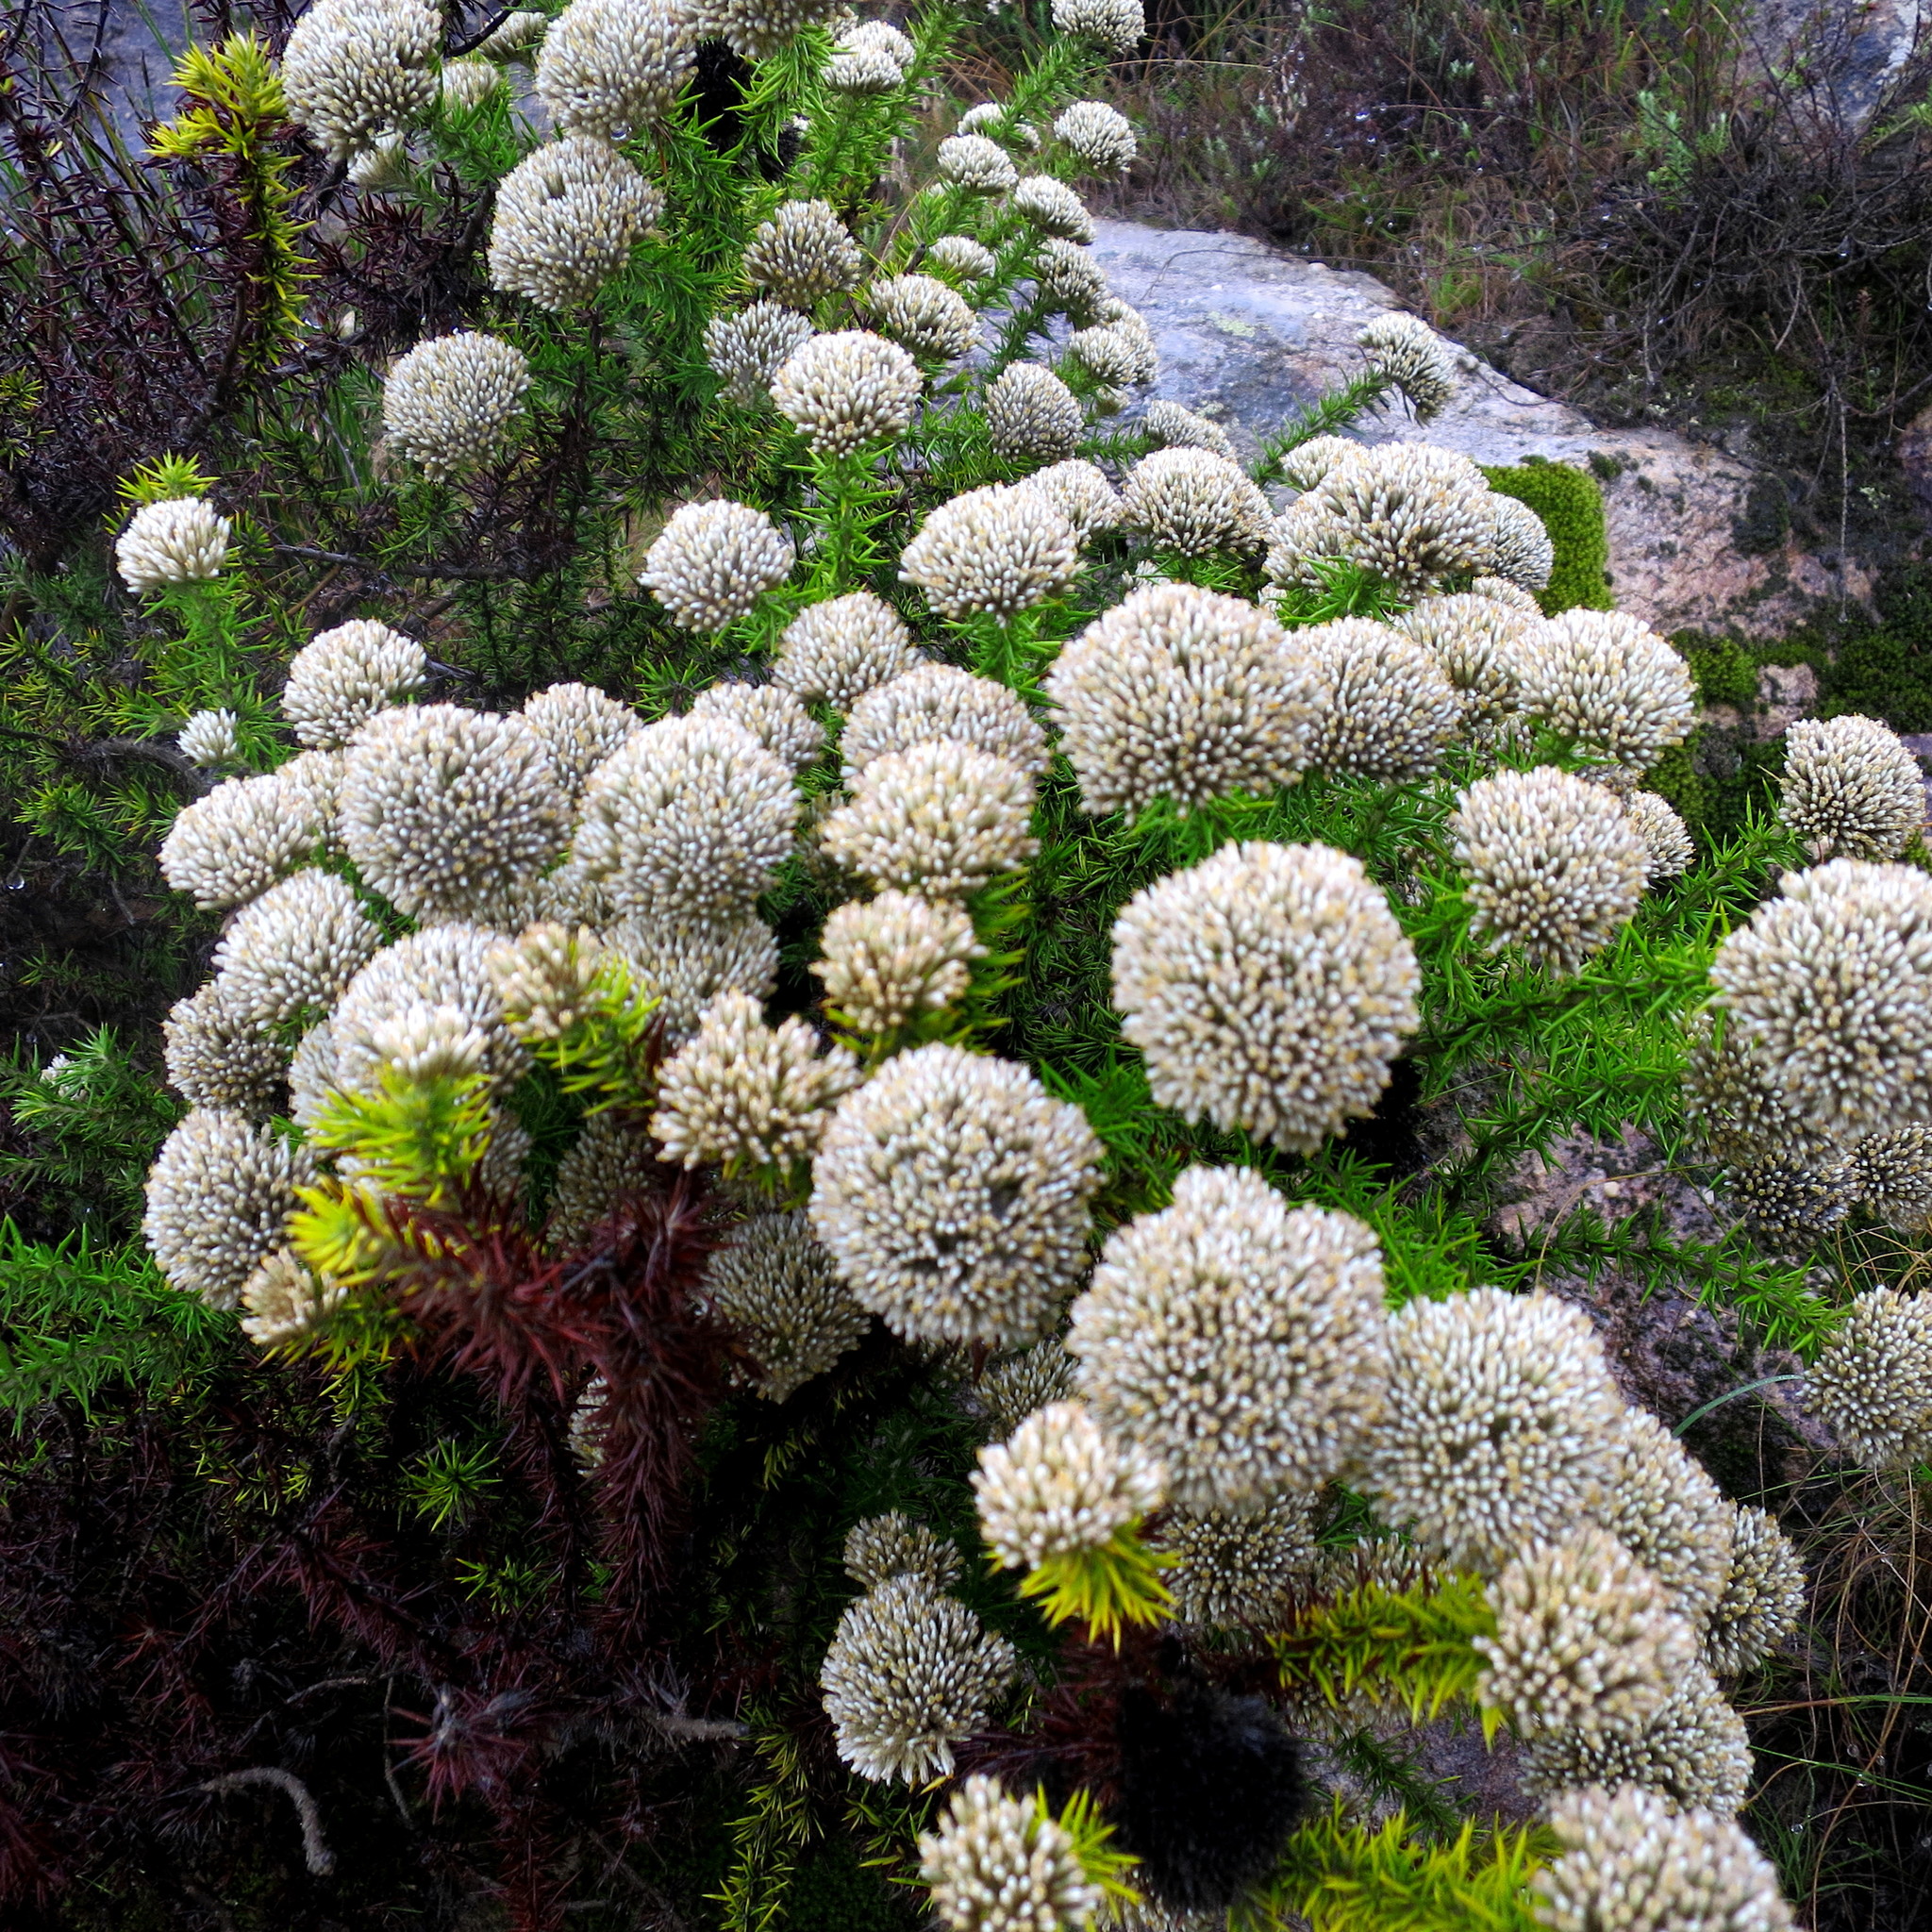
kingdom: Plantae
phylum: Tracheophyta
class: Magnoliopsida
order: Asterales
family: Asteraceae
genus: Metalasia
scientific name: Metalasia trivialis
